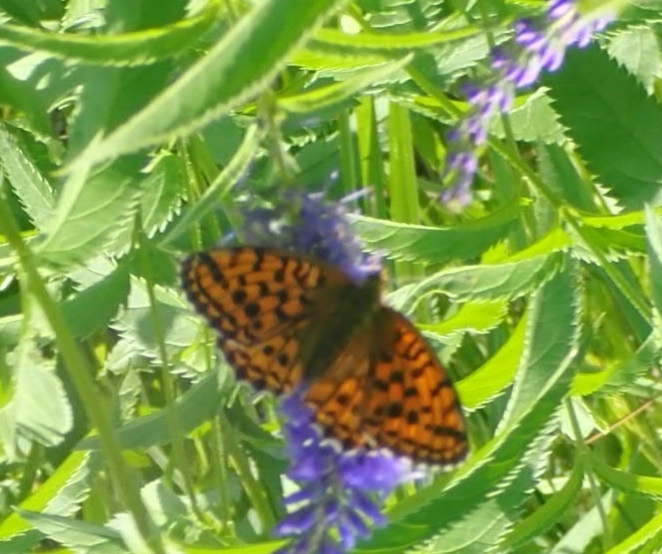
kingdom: Animalia
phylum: Arthropoda
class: Insecta
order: Lepidoptera
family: Nymphalidae
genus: Brenthis
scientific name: Brenthis ino
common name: Lesser marbled fritillary
